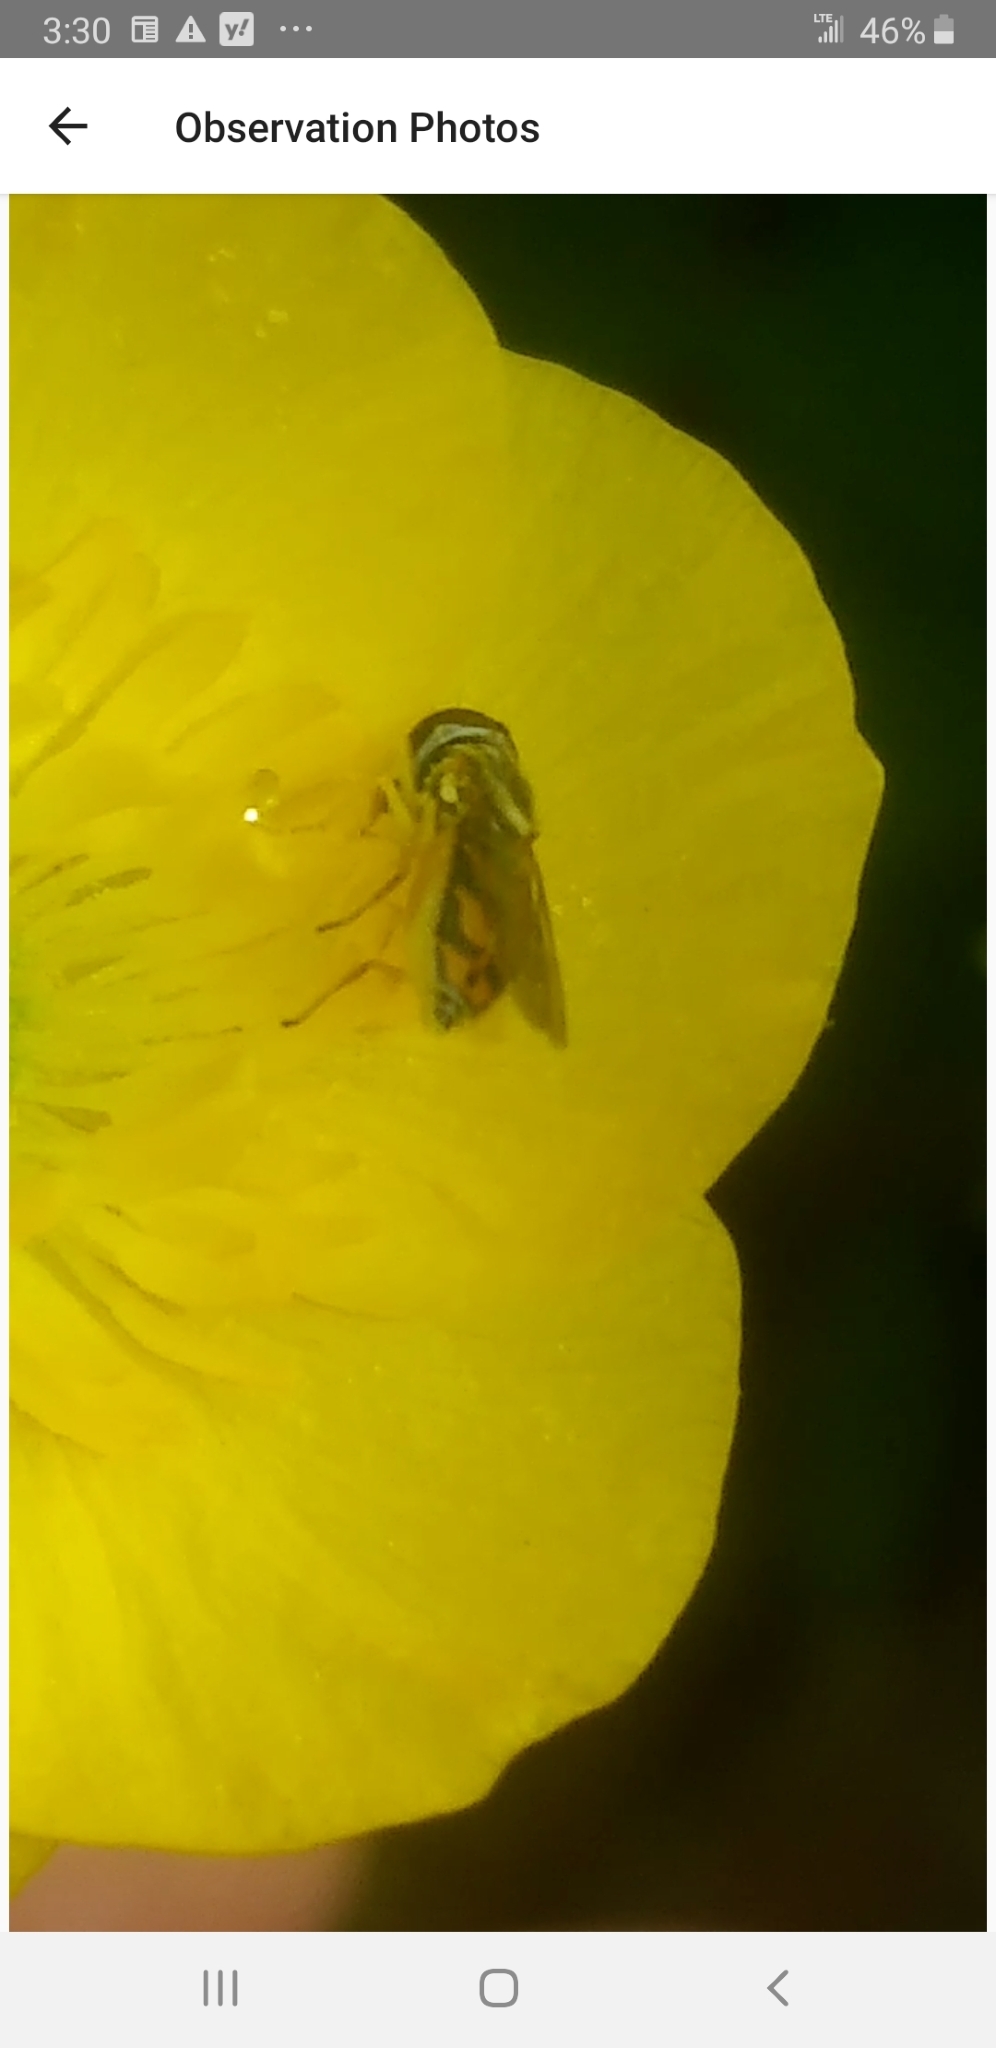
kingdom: Animalia
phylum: Arthropoda
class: Insecta
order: Diptera
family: Syrphidae
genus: Toxomerus
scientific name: Toxomerus marginatus
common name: Syrphid fly
